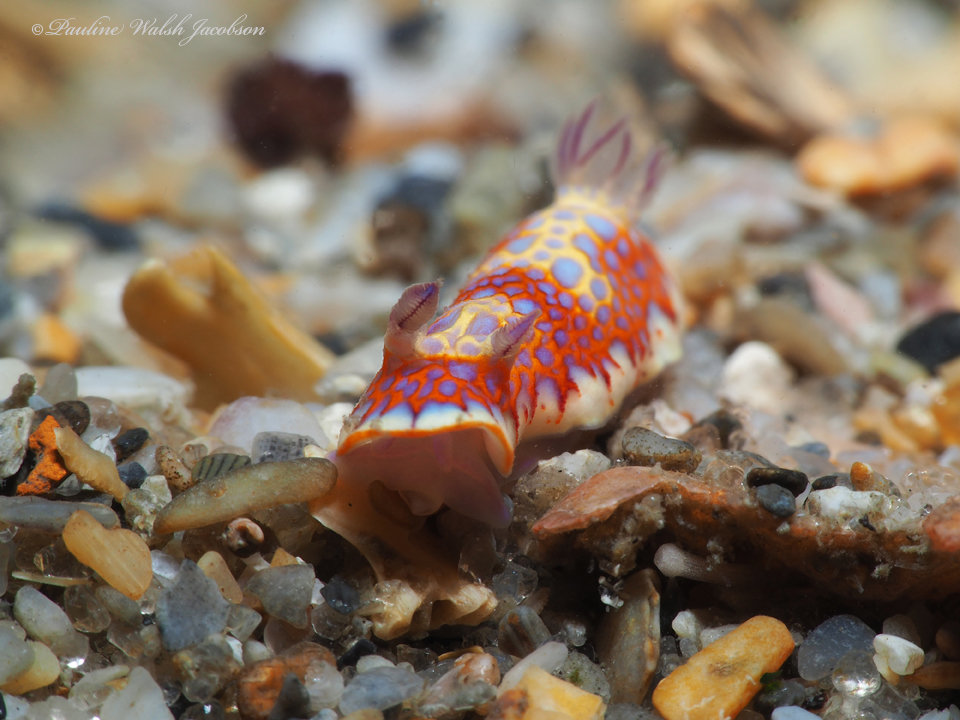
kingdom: Animalia
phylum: Mollusca
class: Gastropoda
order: Nudibranchia
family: Chromodorididae
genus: Felimida
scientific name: Felimida binza
